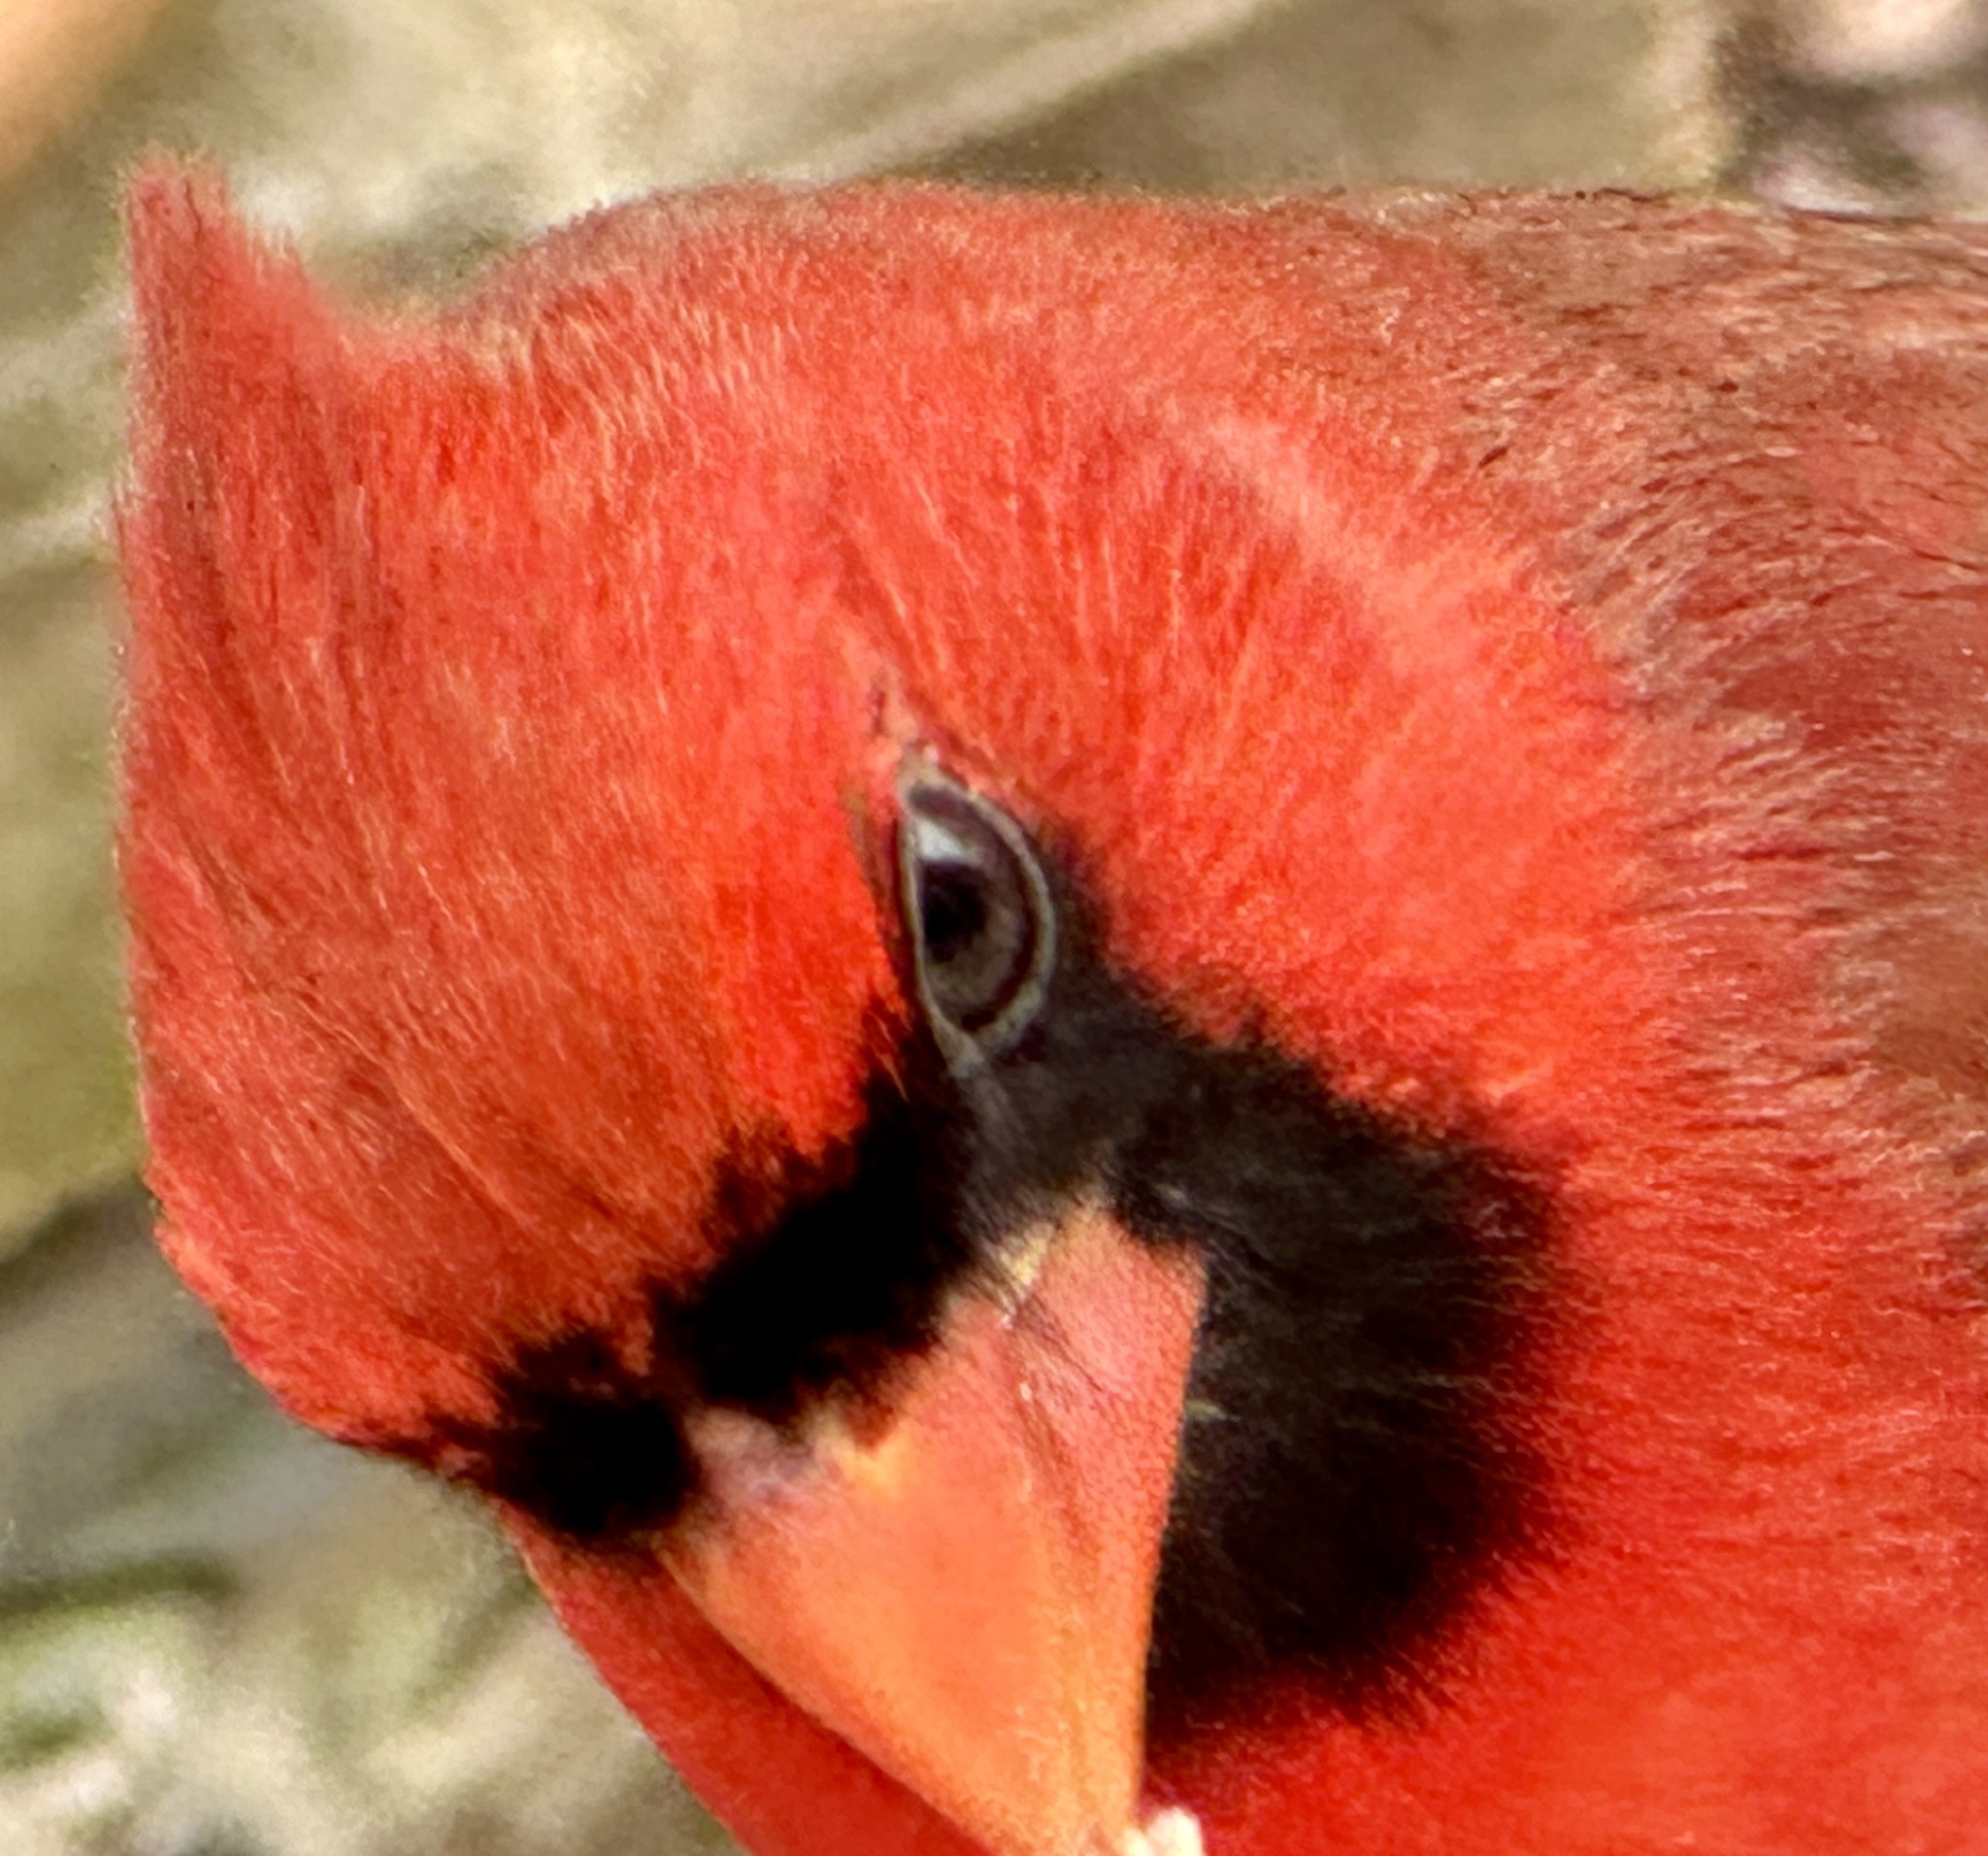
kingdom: Animalia
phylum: Chordata
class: Aves
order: Passeriformes
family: Cardinalidae
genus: Cardinalis
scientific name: Cardinalis cardinalis
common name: Northern cardinal
